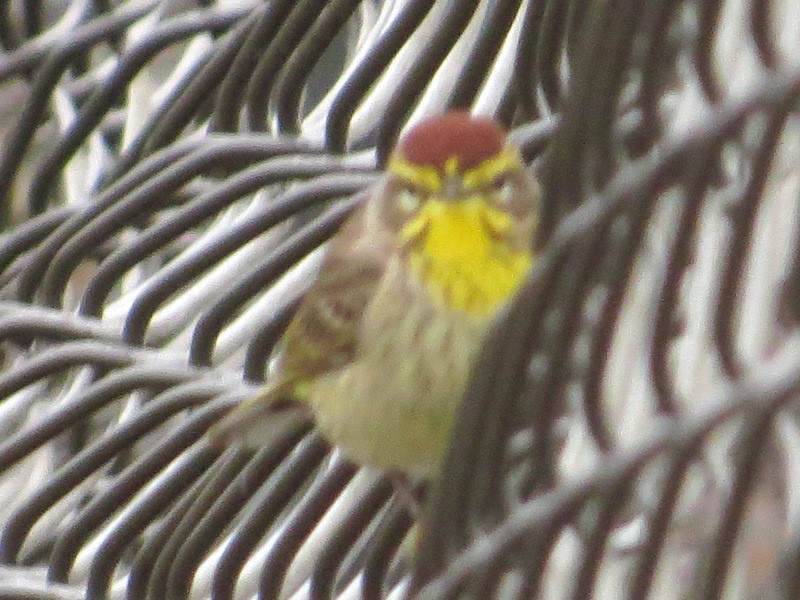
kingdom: Animalia
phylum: Chordata
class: Aves
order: Passeriformes
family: Parulidae
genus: Setophaga
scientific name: Setophaga palmarum
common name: Palm warbler
